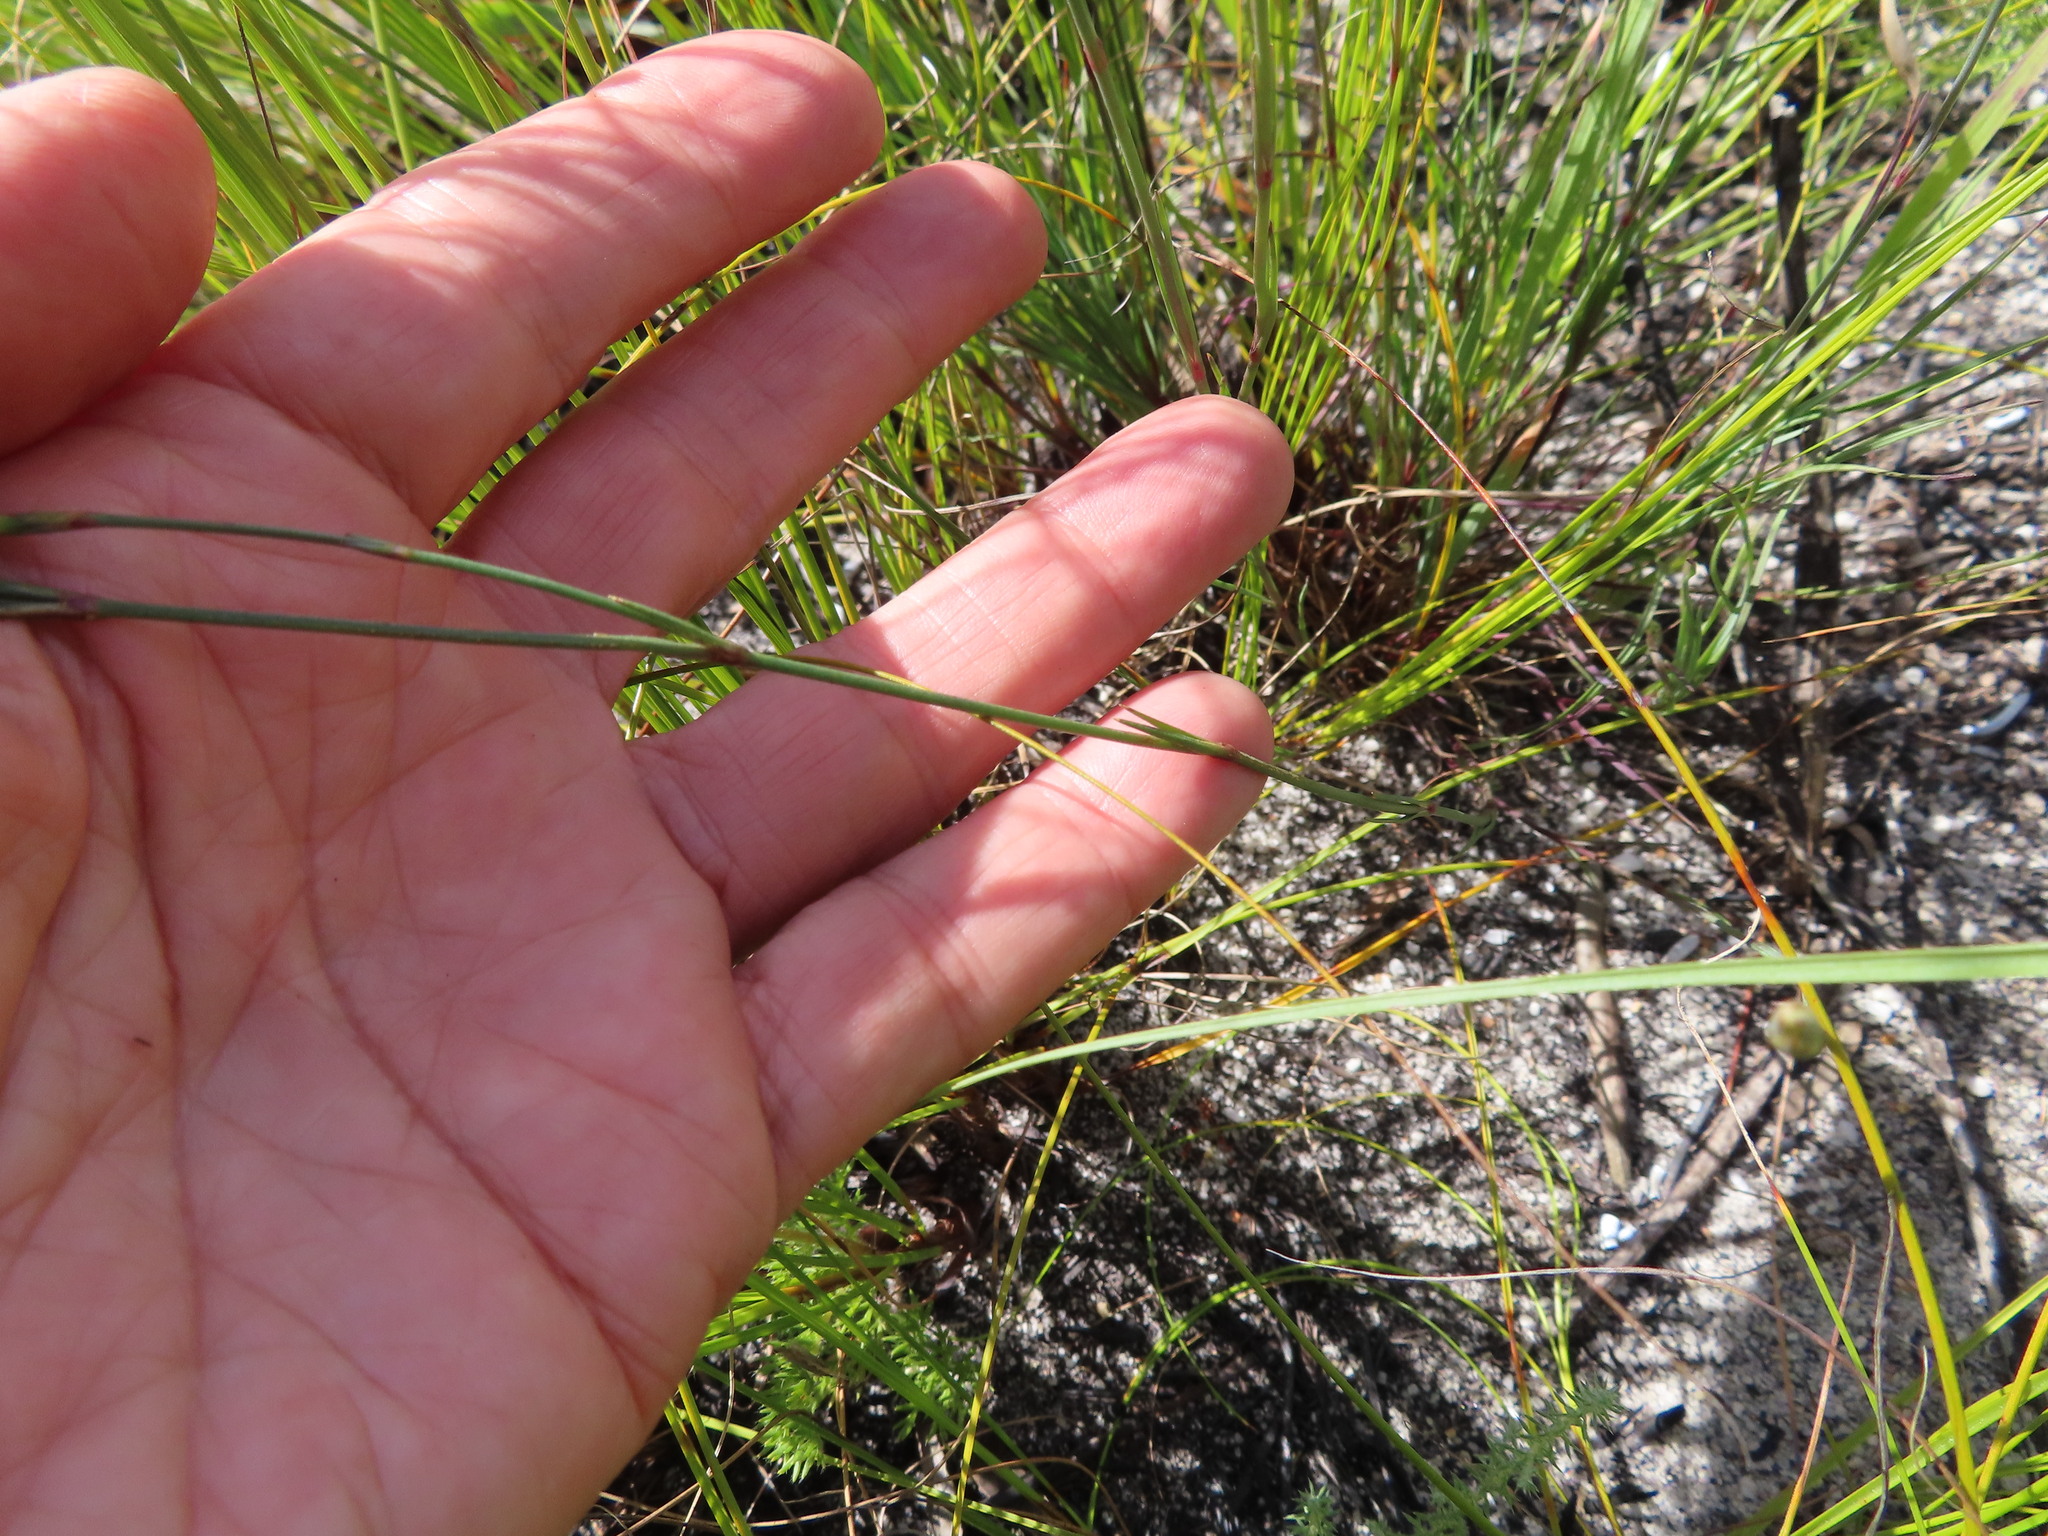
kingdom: Plantae
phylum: Tracheophyta
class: Magnoliopsida
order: Caryophyllales
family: Caryophyllaceae
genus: Dianthus
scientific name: Dianthus albens
